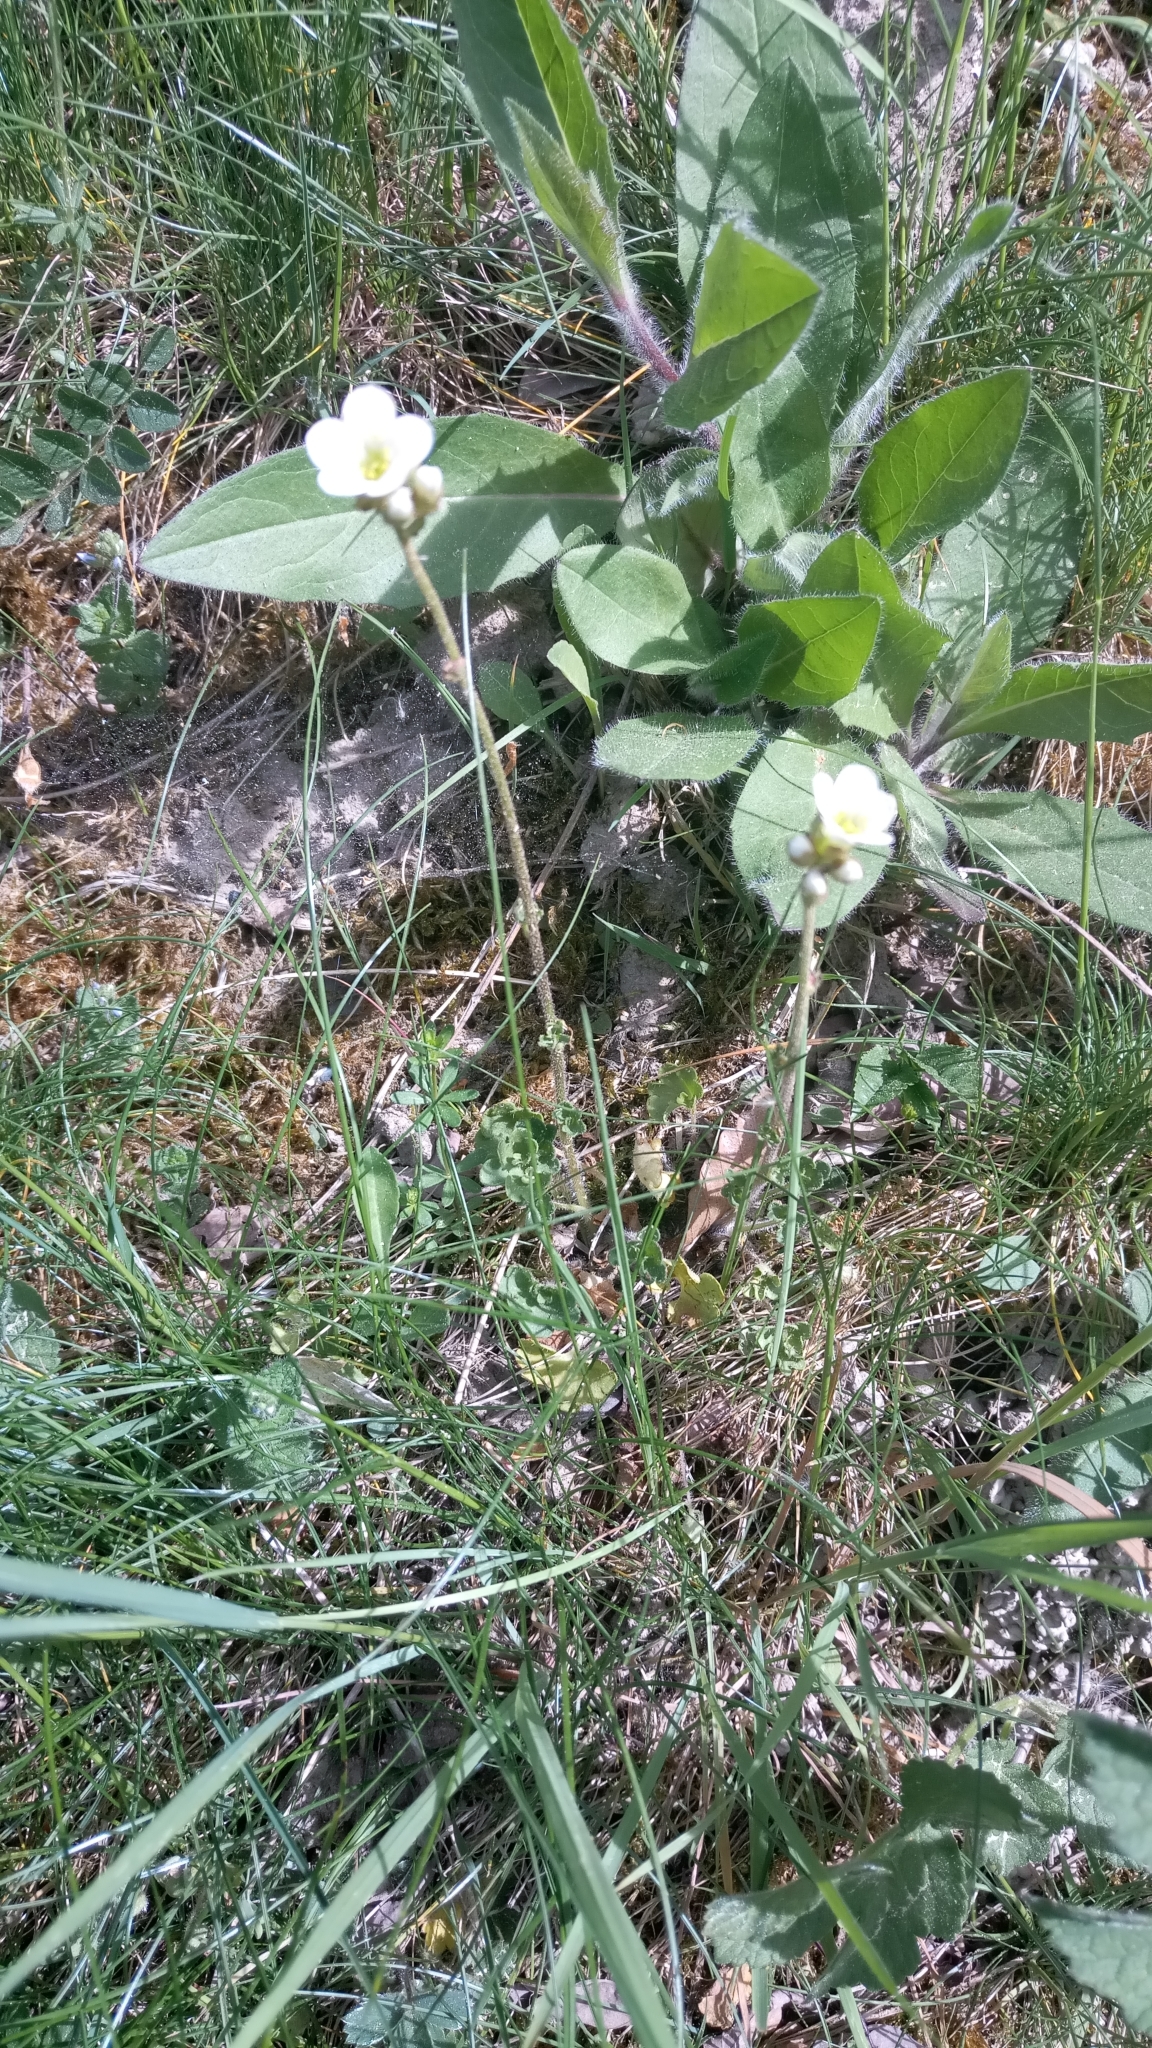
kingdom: Plantae
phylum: Tracheophyta
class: Magnoliopsida
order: Saxifragales
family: Saxifragaceae
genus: Saxifraga
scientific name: Saxifraga granulata
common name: Meadow saxifrage
